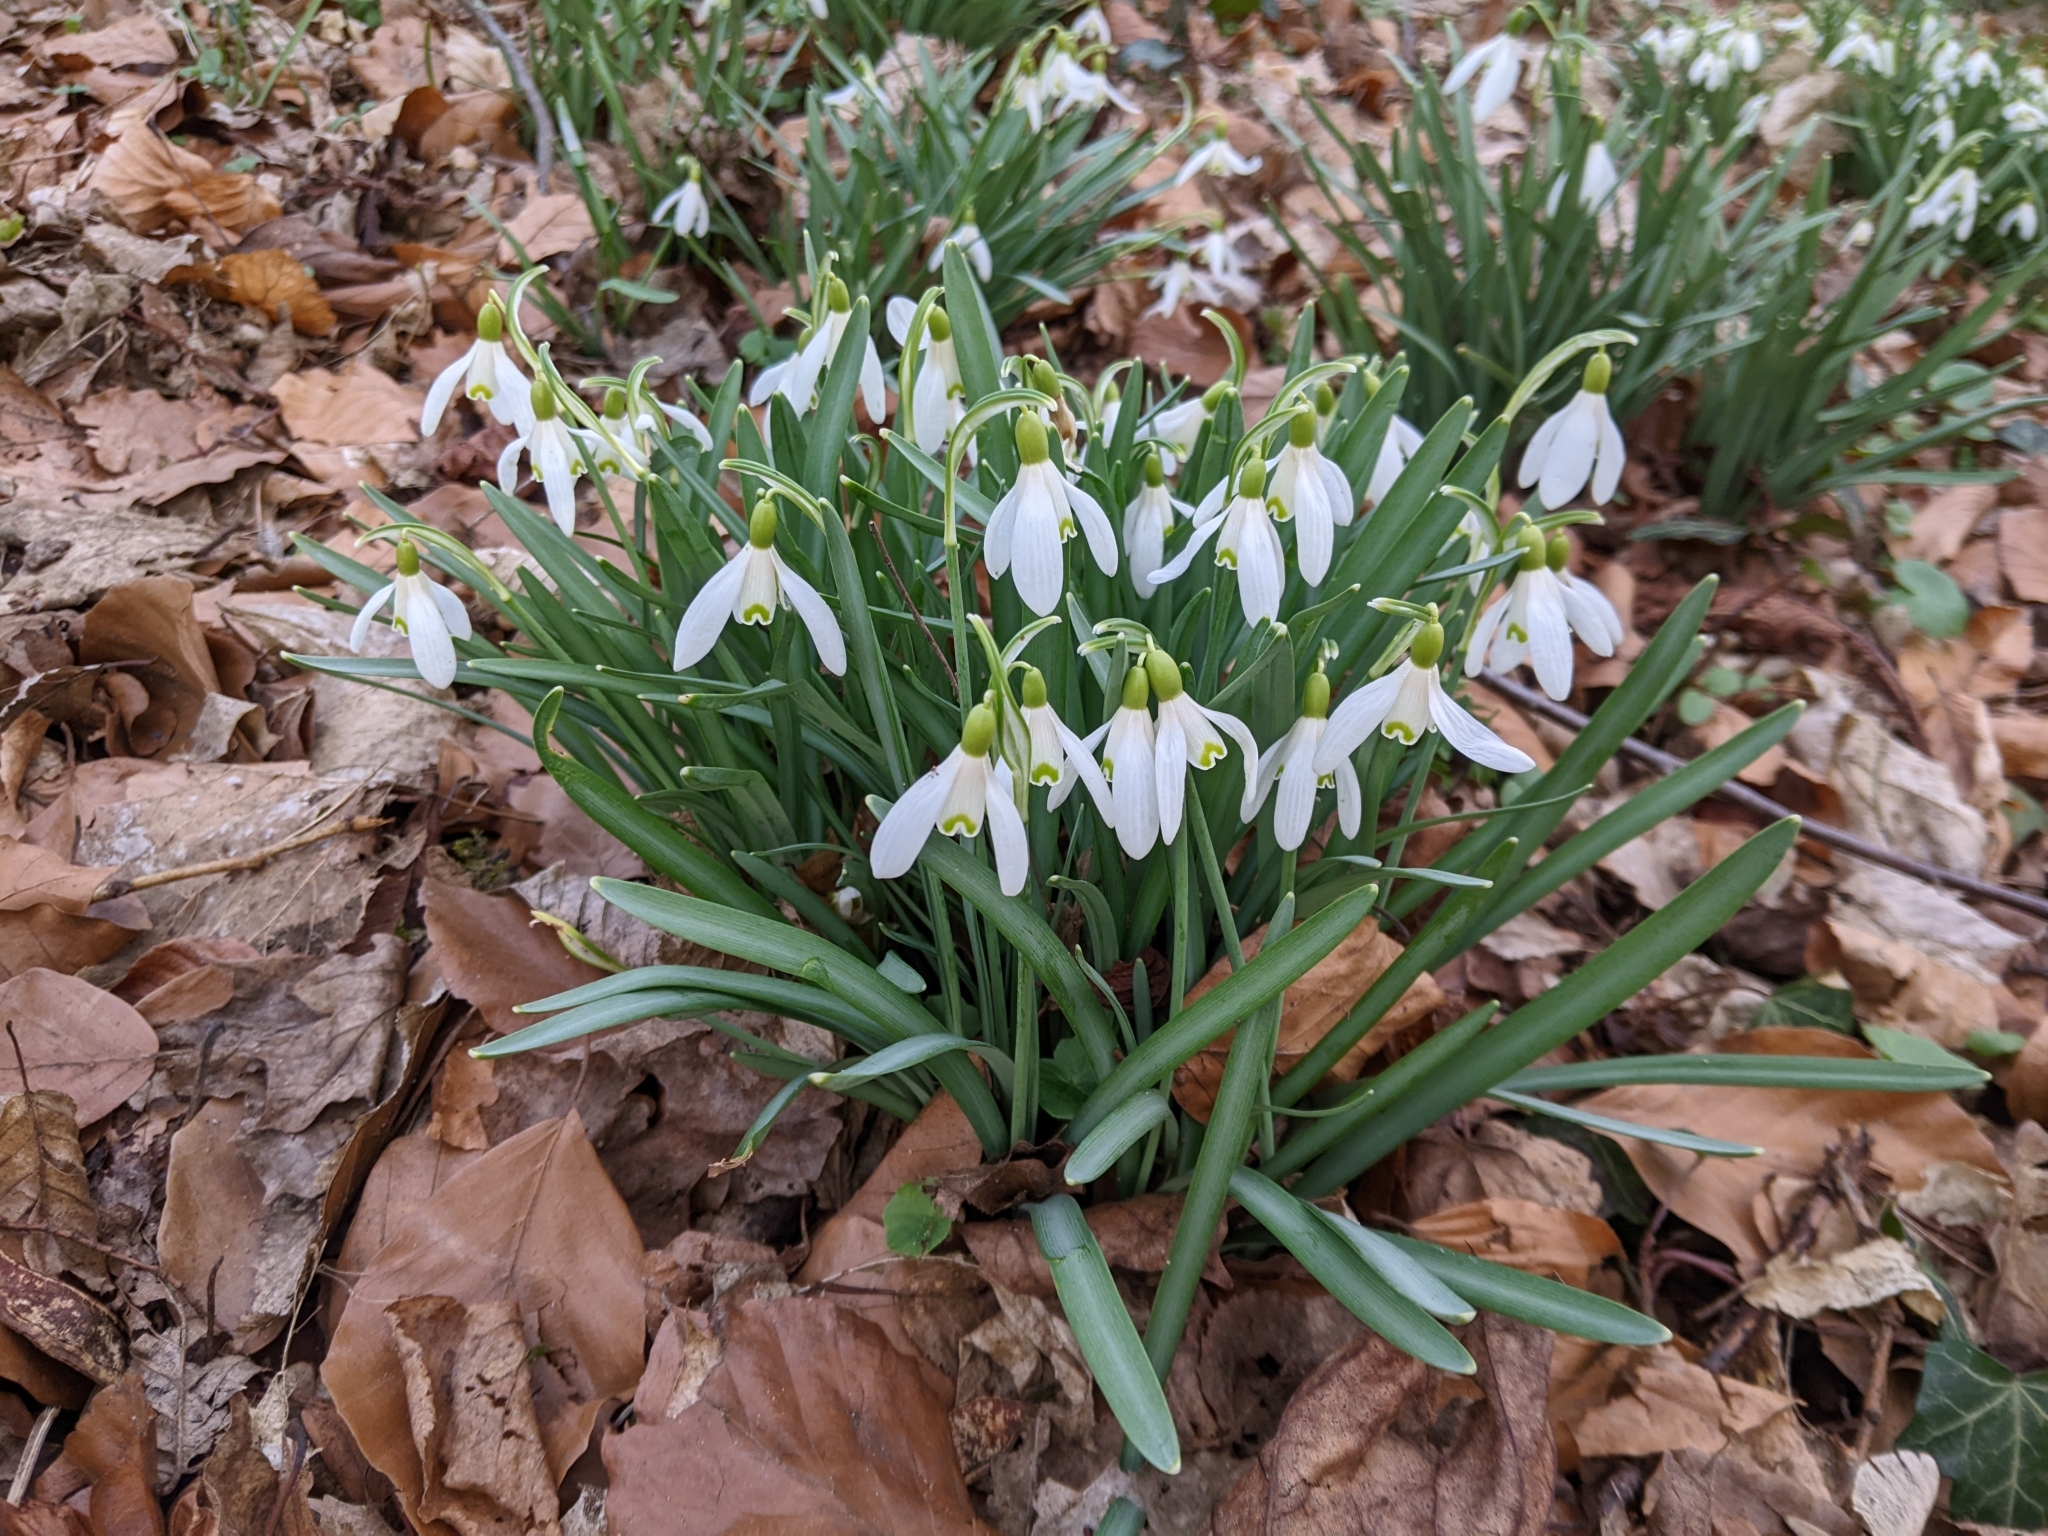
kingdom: Plantae
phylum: Tracheophyta
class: Liliopsida
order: Asparagales
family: Amaryllidaceae
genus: Galanthus
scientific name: Galanthus nivalis
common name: Snowdrop
